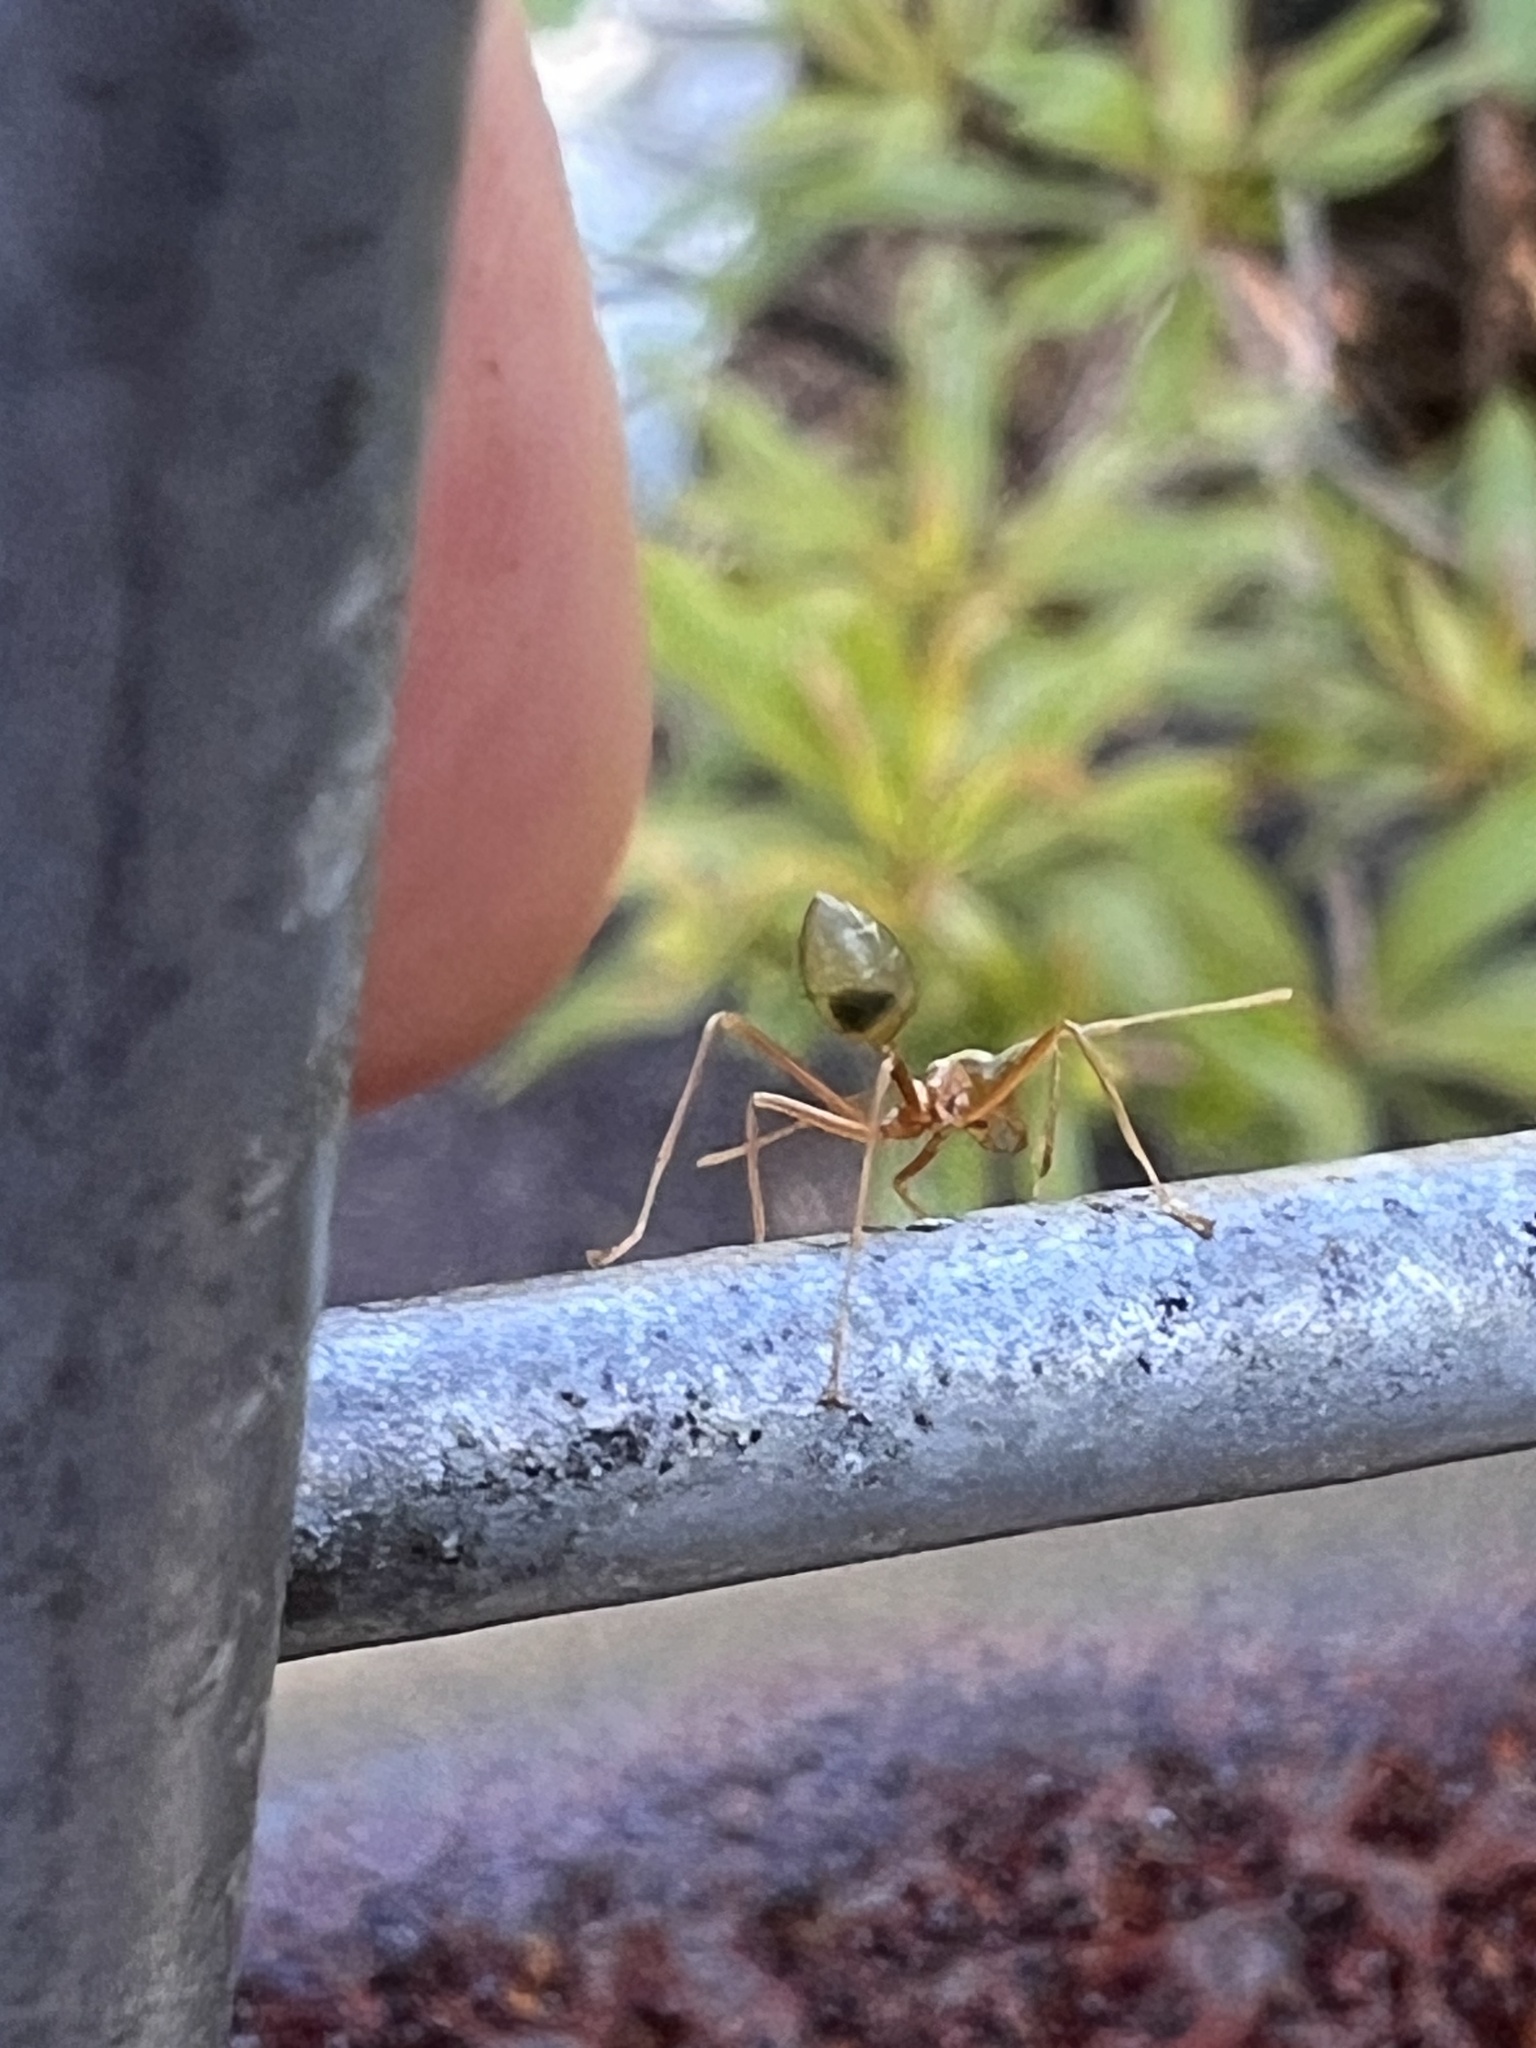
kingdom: Animalia
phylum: Arthropoda
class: Insecta
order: Hymenoptera
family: Formicidae
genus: Oecophylla
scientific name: Oecophylla smaragdina
